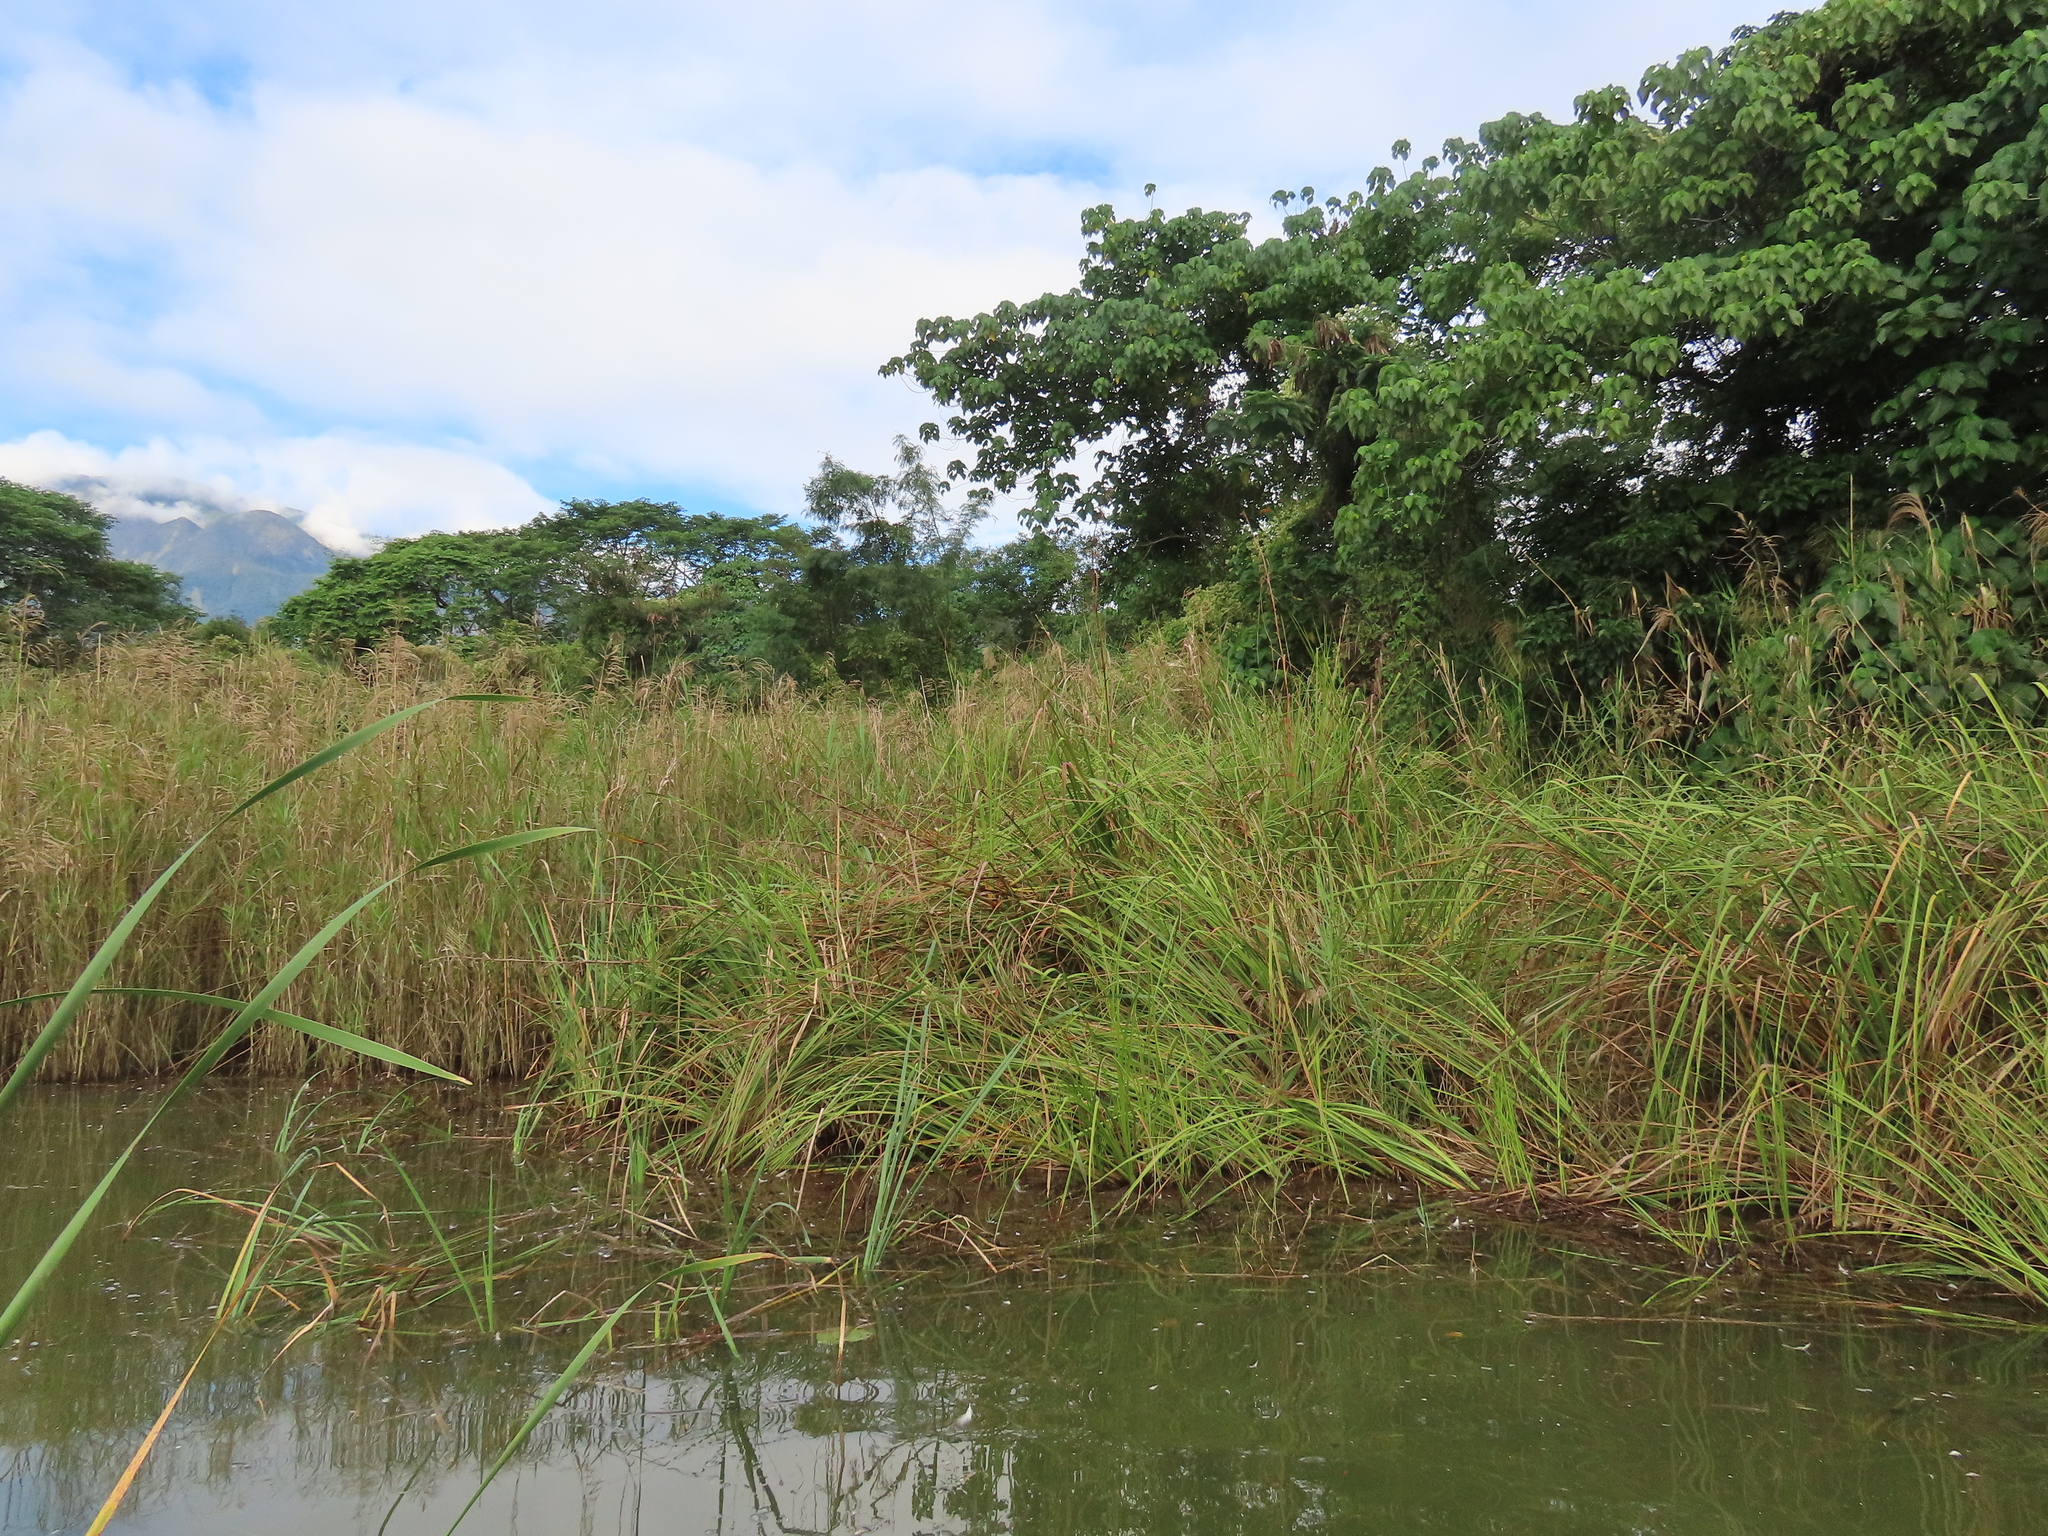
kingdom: Plantae
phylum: Tracheophyta
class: Liliopsida
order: Poales
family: Cyperaceae
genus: Cladium
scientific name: Cladium mariscus
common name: Great fen-sedge
